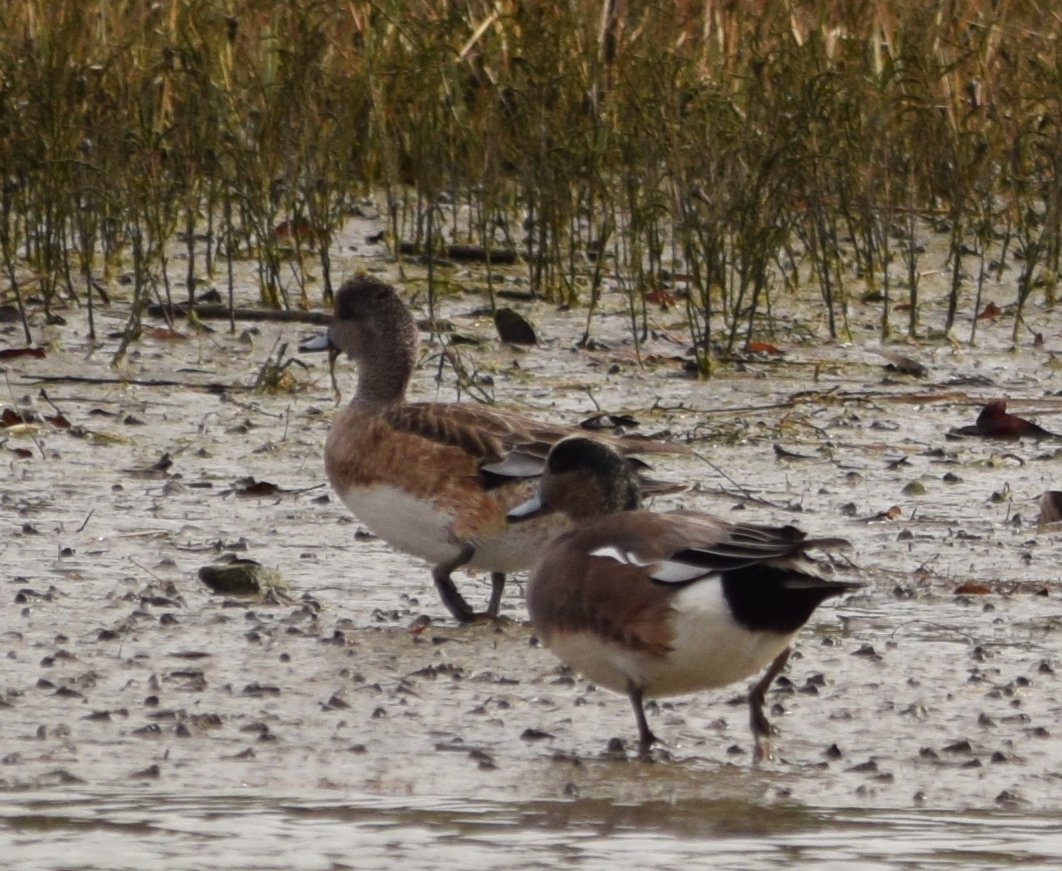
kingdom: Animalia
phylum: Chordata
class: Aves
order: Anseriformes
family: Anatidae
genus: Mareca
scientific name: Mareca americana
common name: American wigeon
